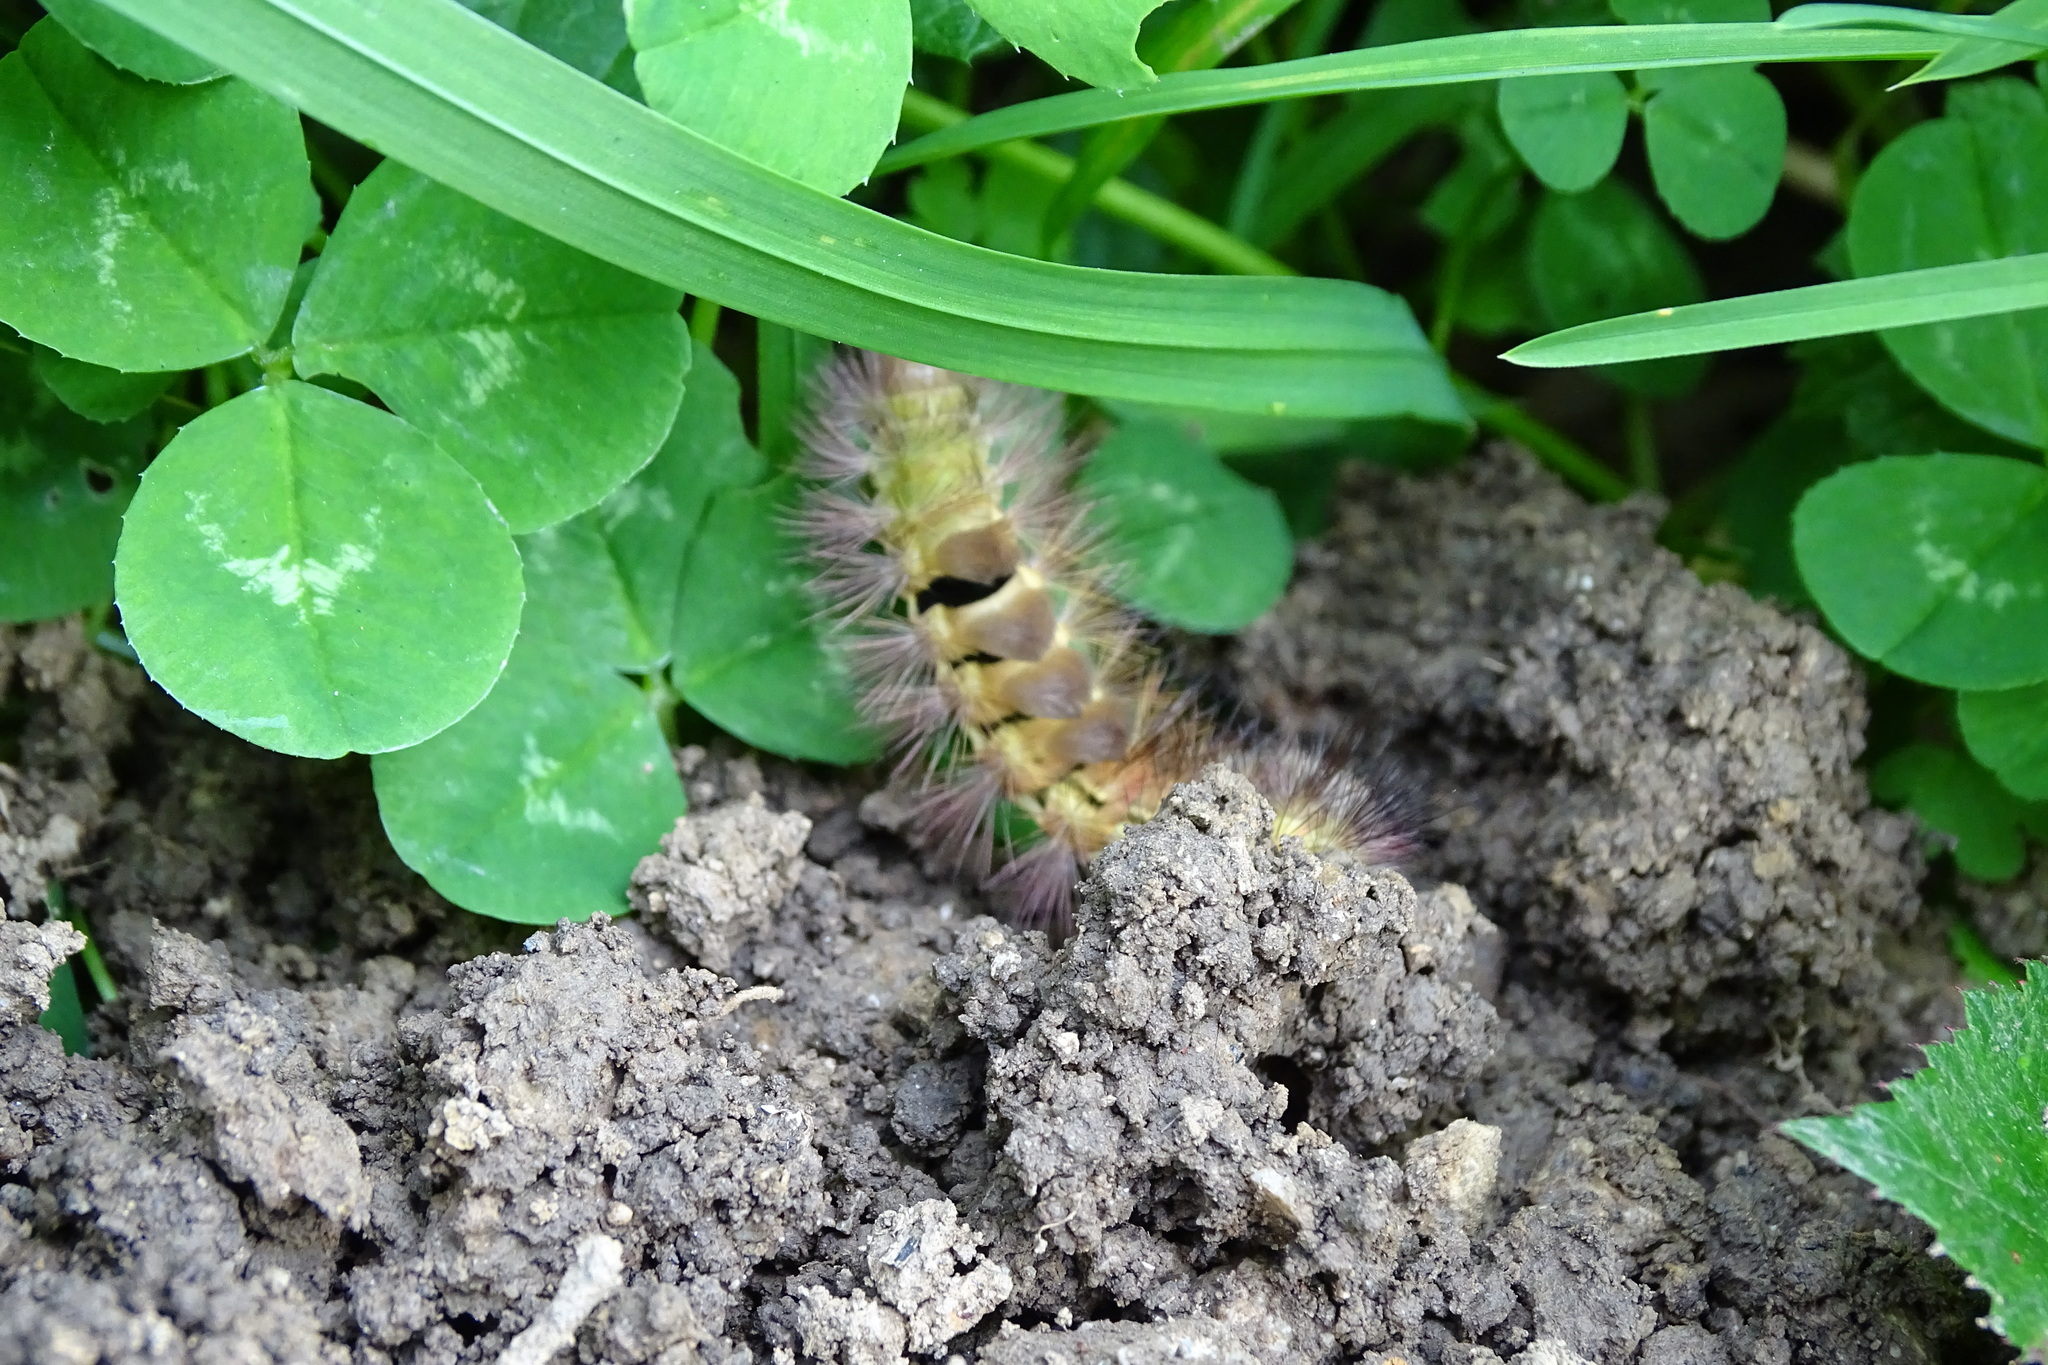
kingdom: Animalia
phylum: Arthropoda
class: Insecta
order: Lepidoptera
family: Erebidae
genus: Calliteara
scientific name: Calliteara pudibunda
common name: Pale tussock
